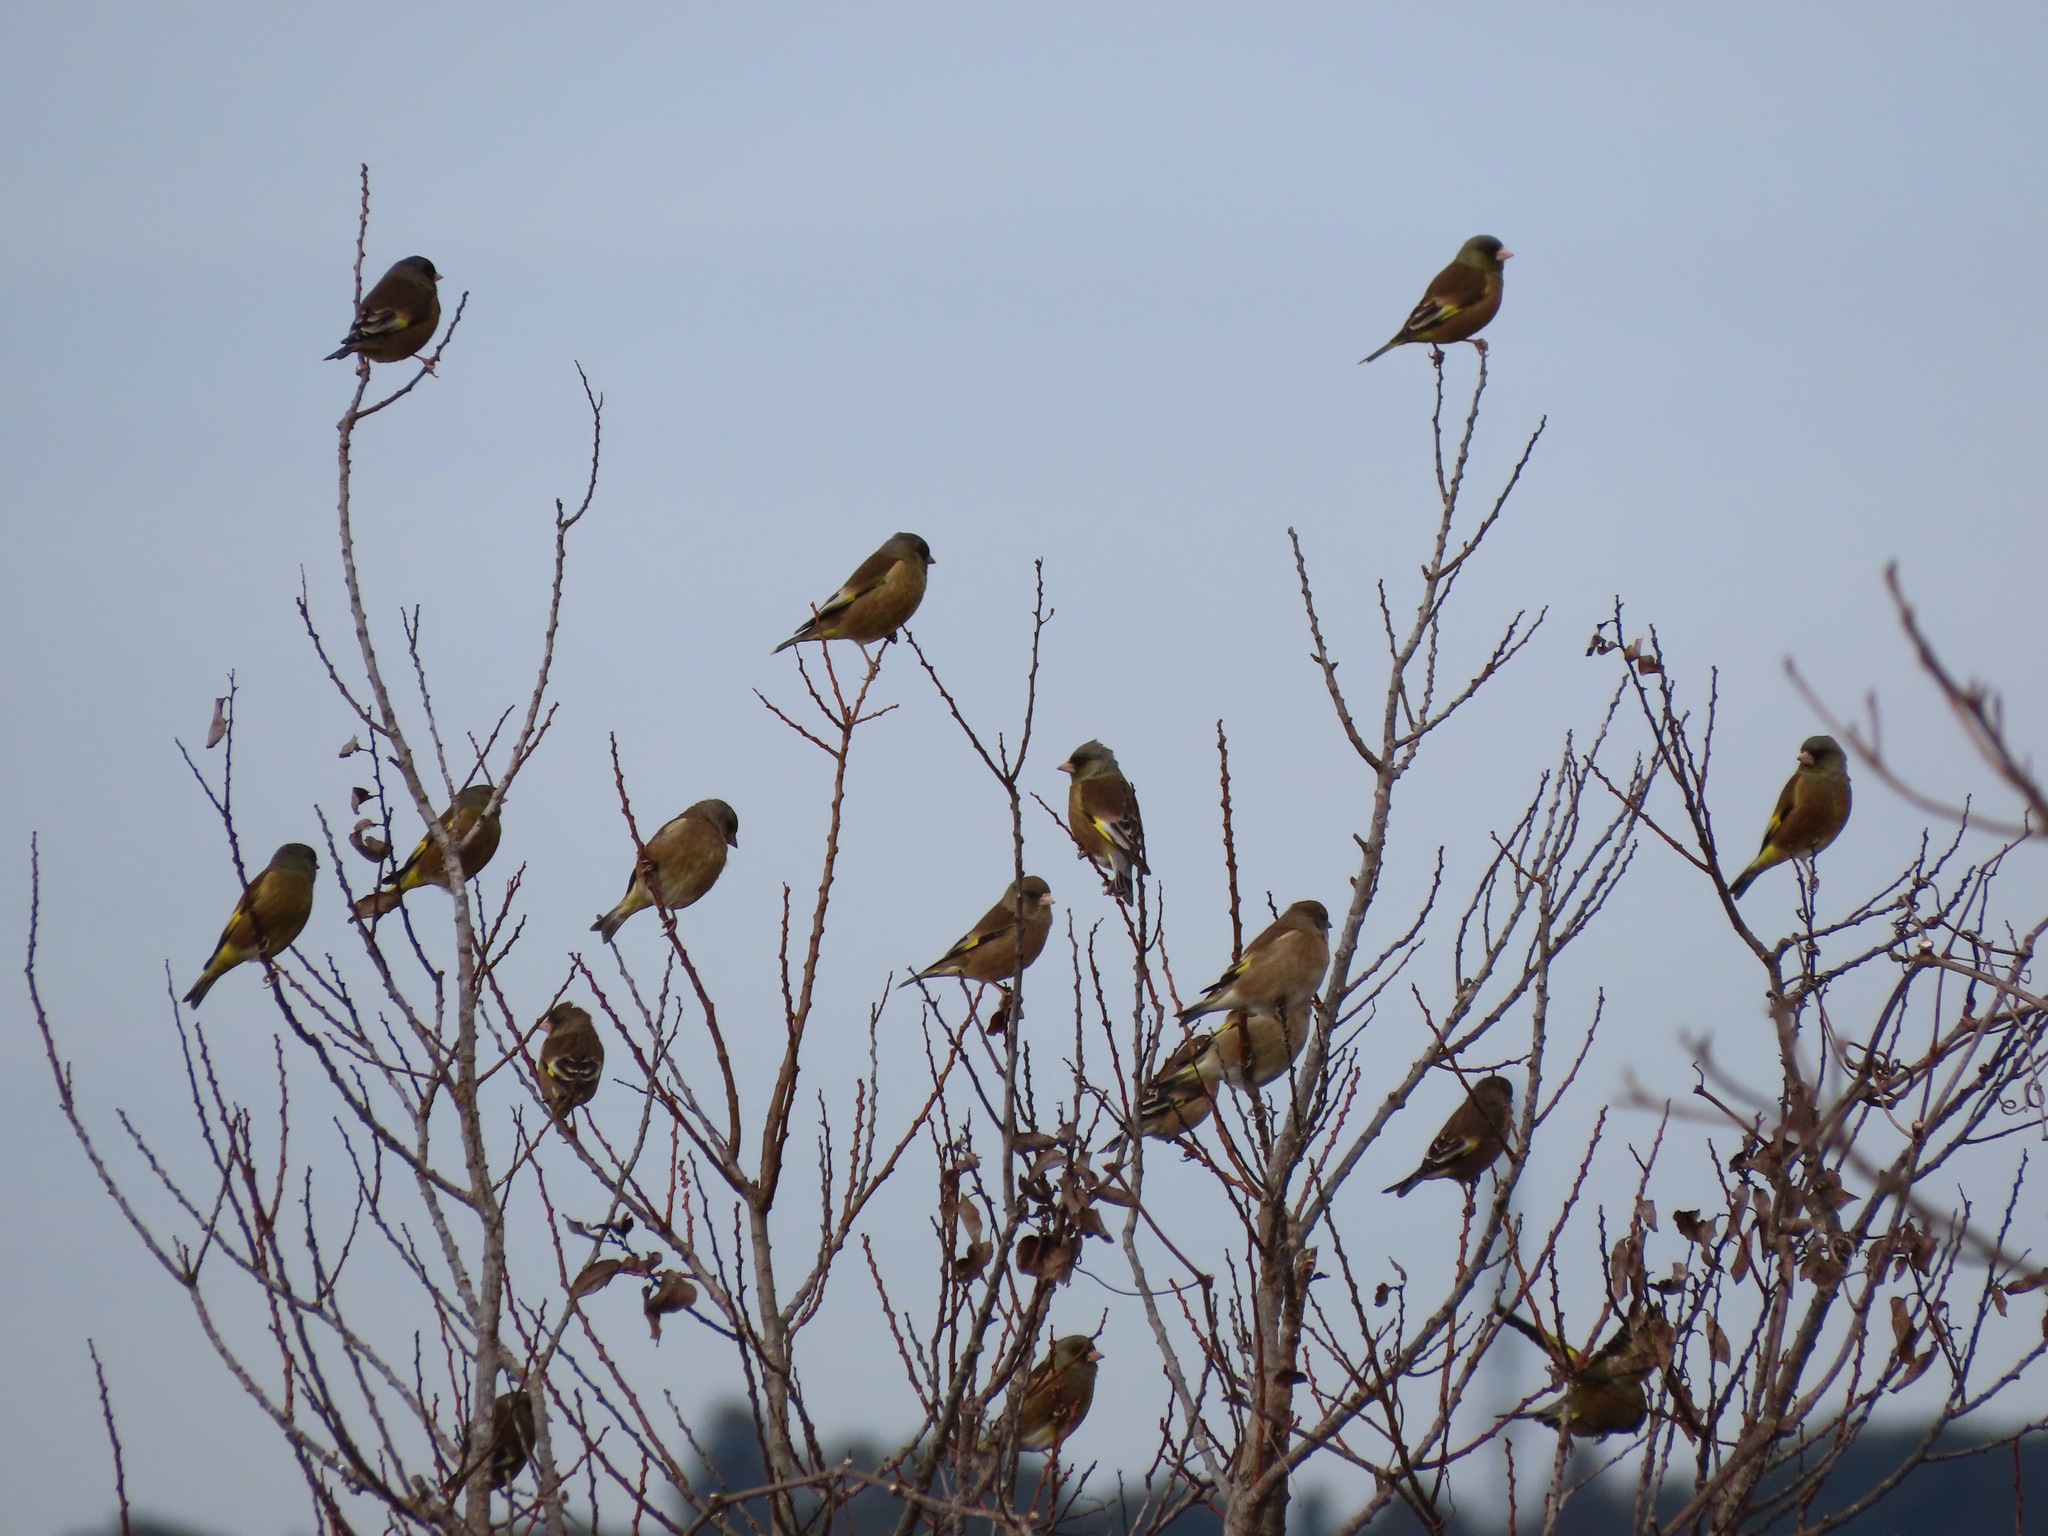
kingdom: Plantae
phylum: Tracheophyta
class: Liliopsida
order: Poales
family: Poaceae
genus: Chloris
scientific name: Chloris sinica
